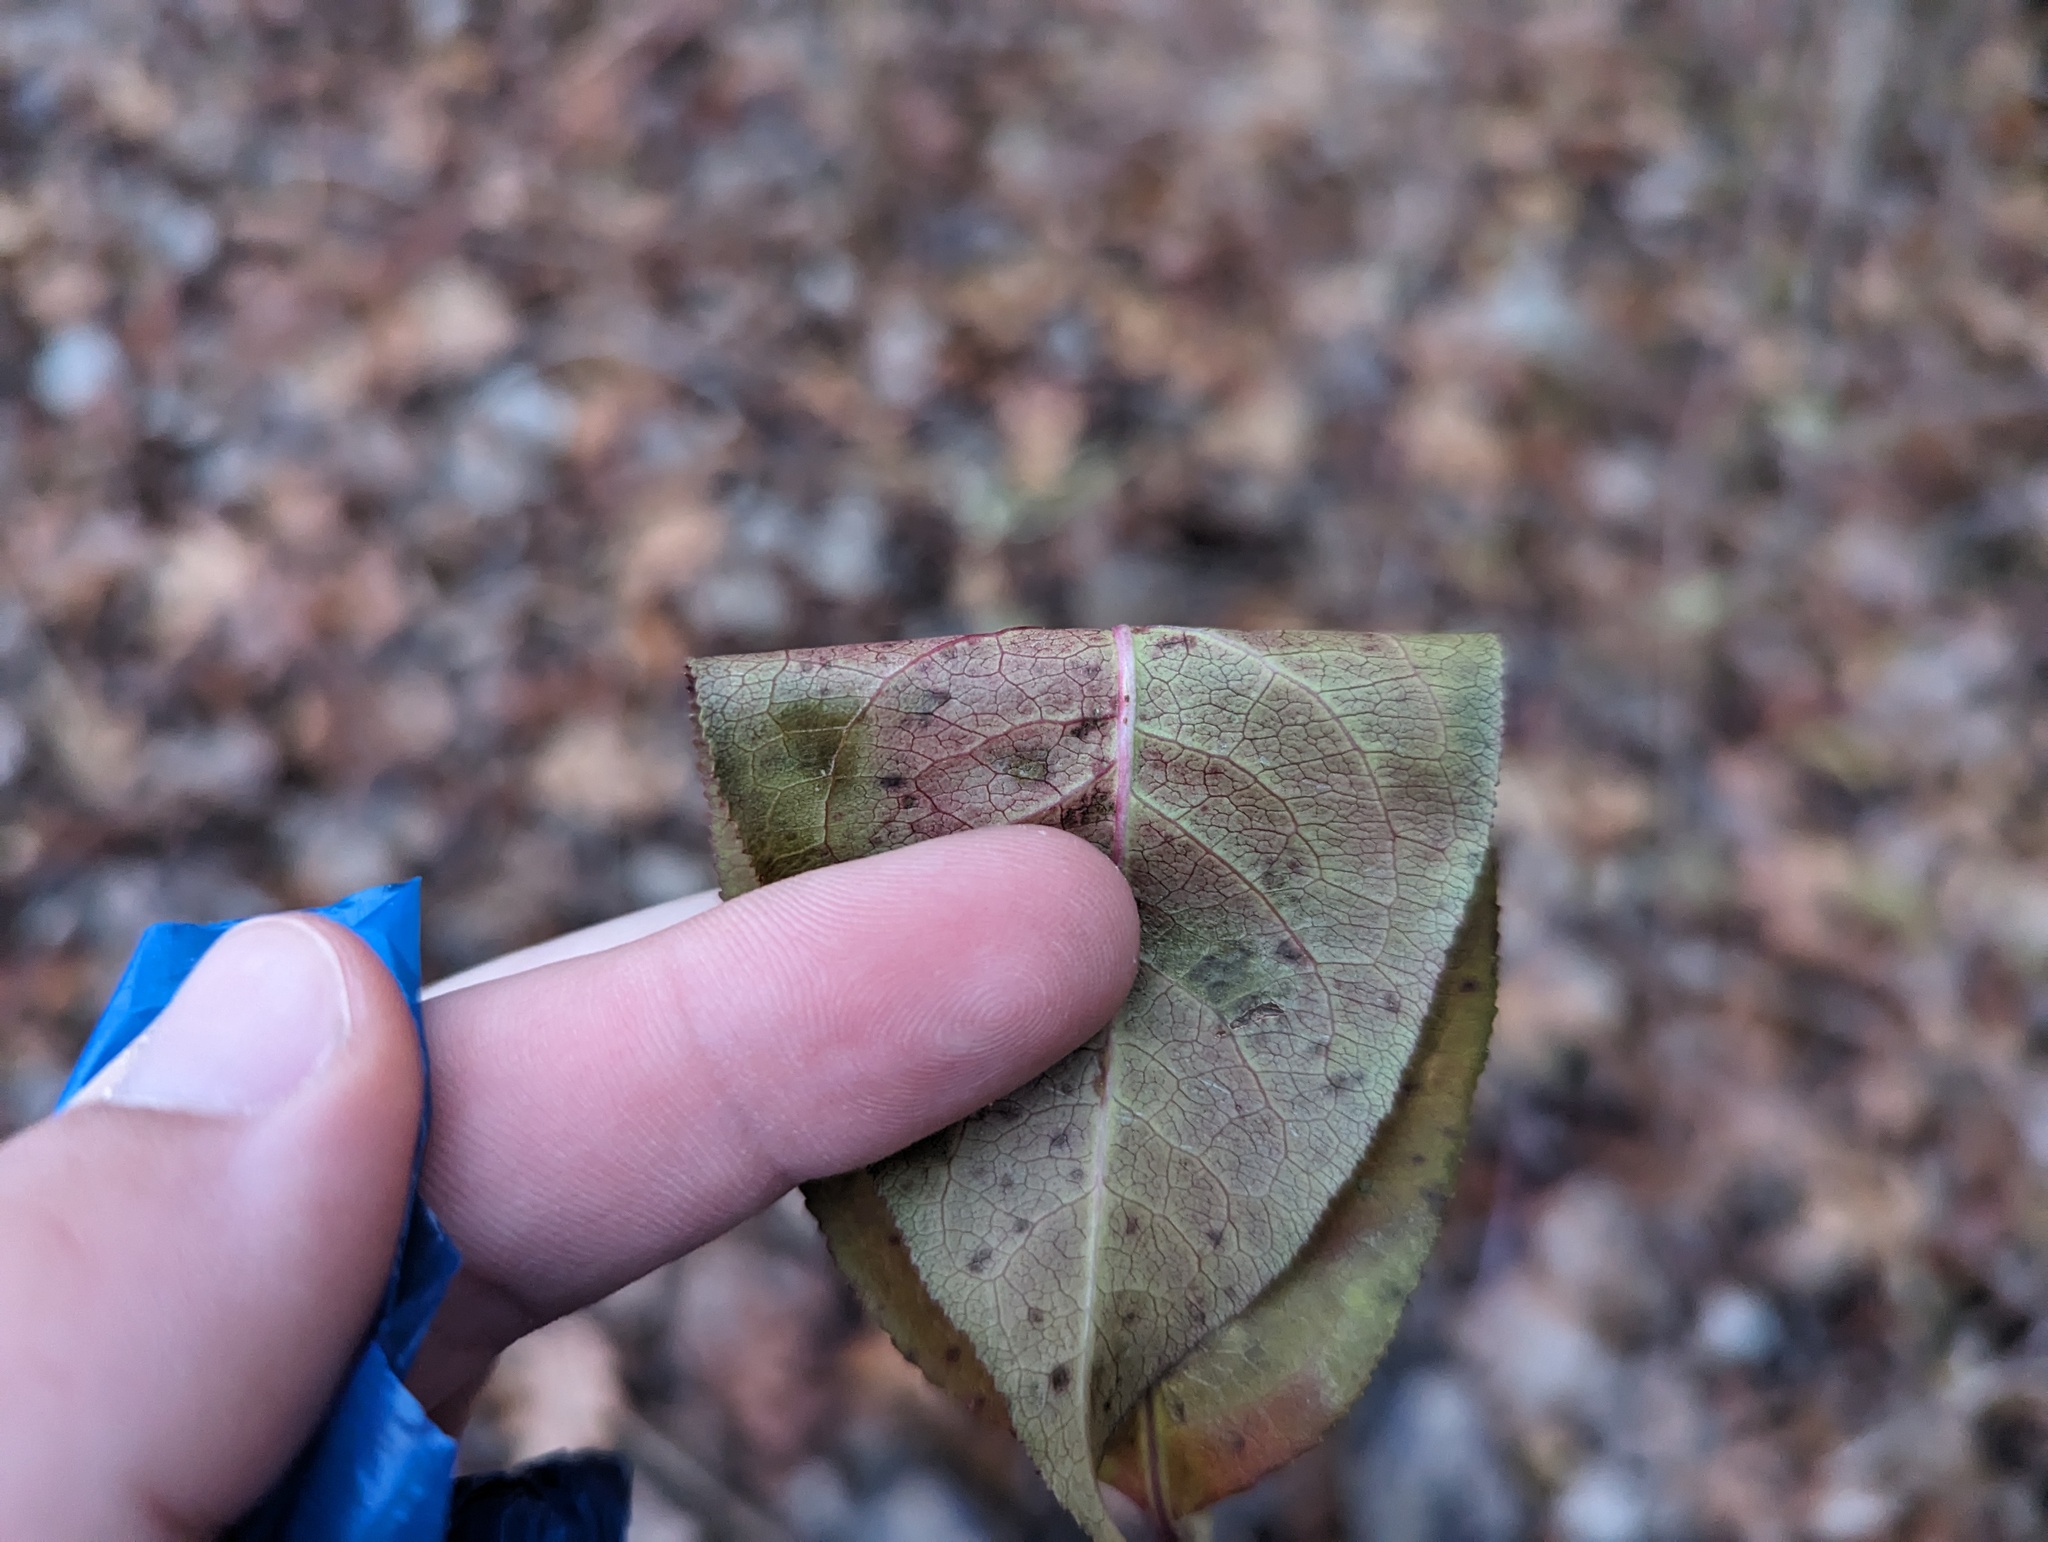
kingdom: Plantae
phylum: Tracheophyta
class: Magnoliopsida
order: Celastrales
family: Celastraceae
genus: Euonymus
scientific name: Euonymus europaeus
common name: Spindle
